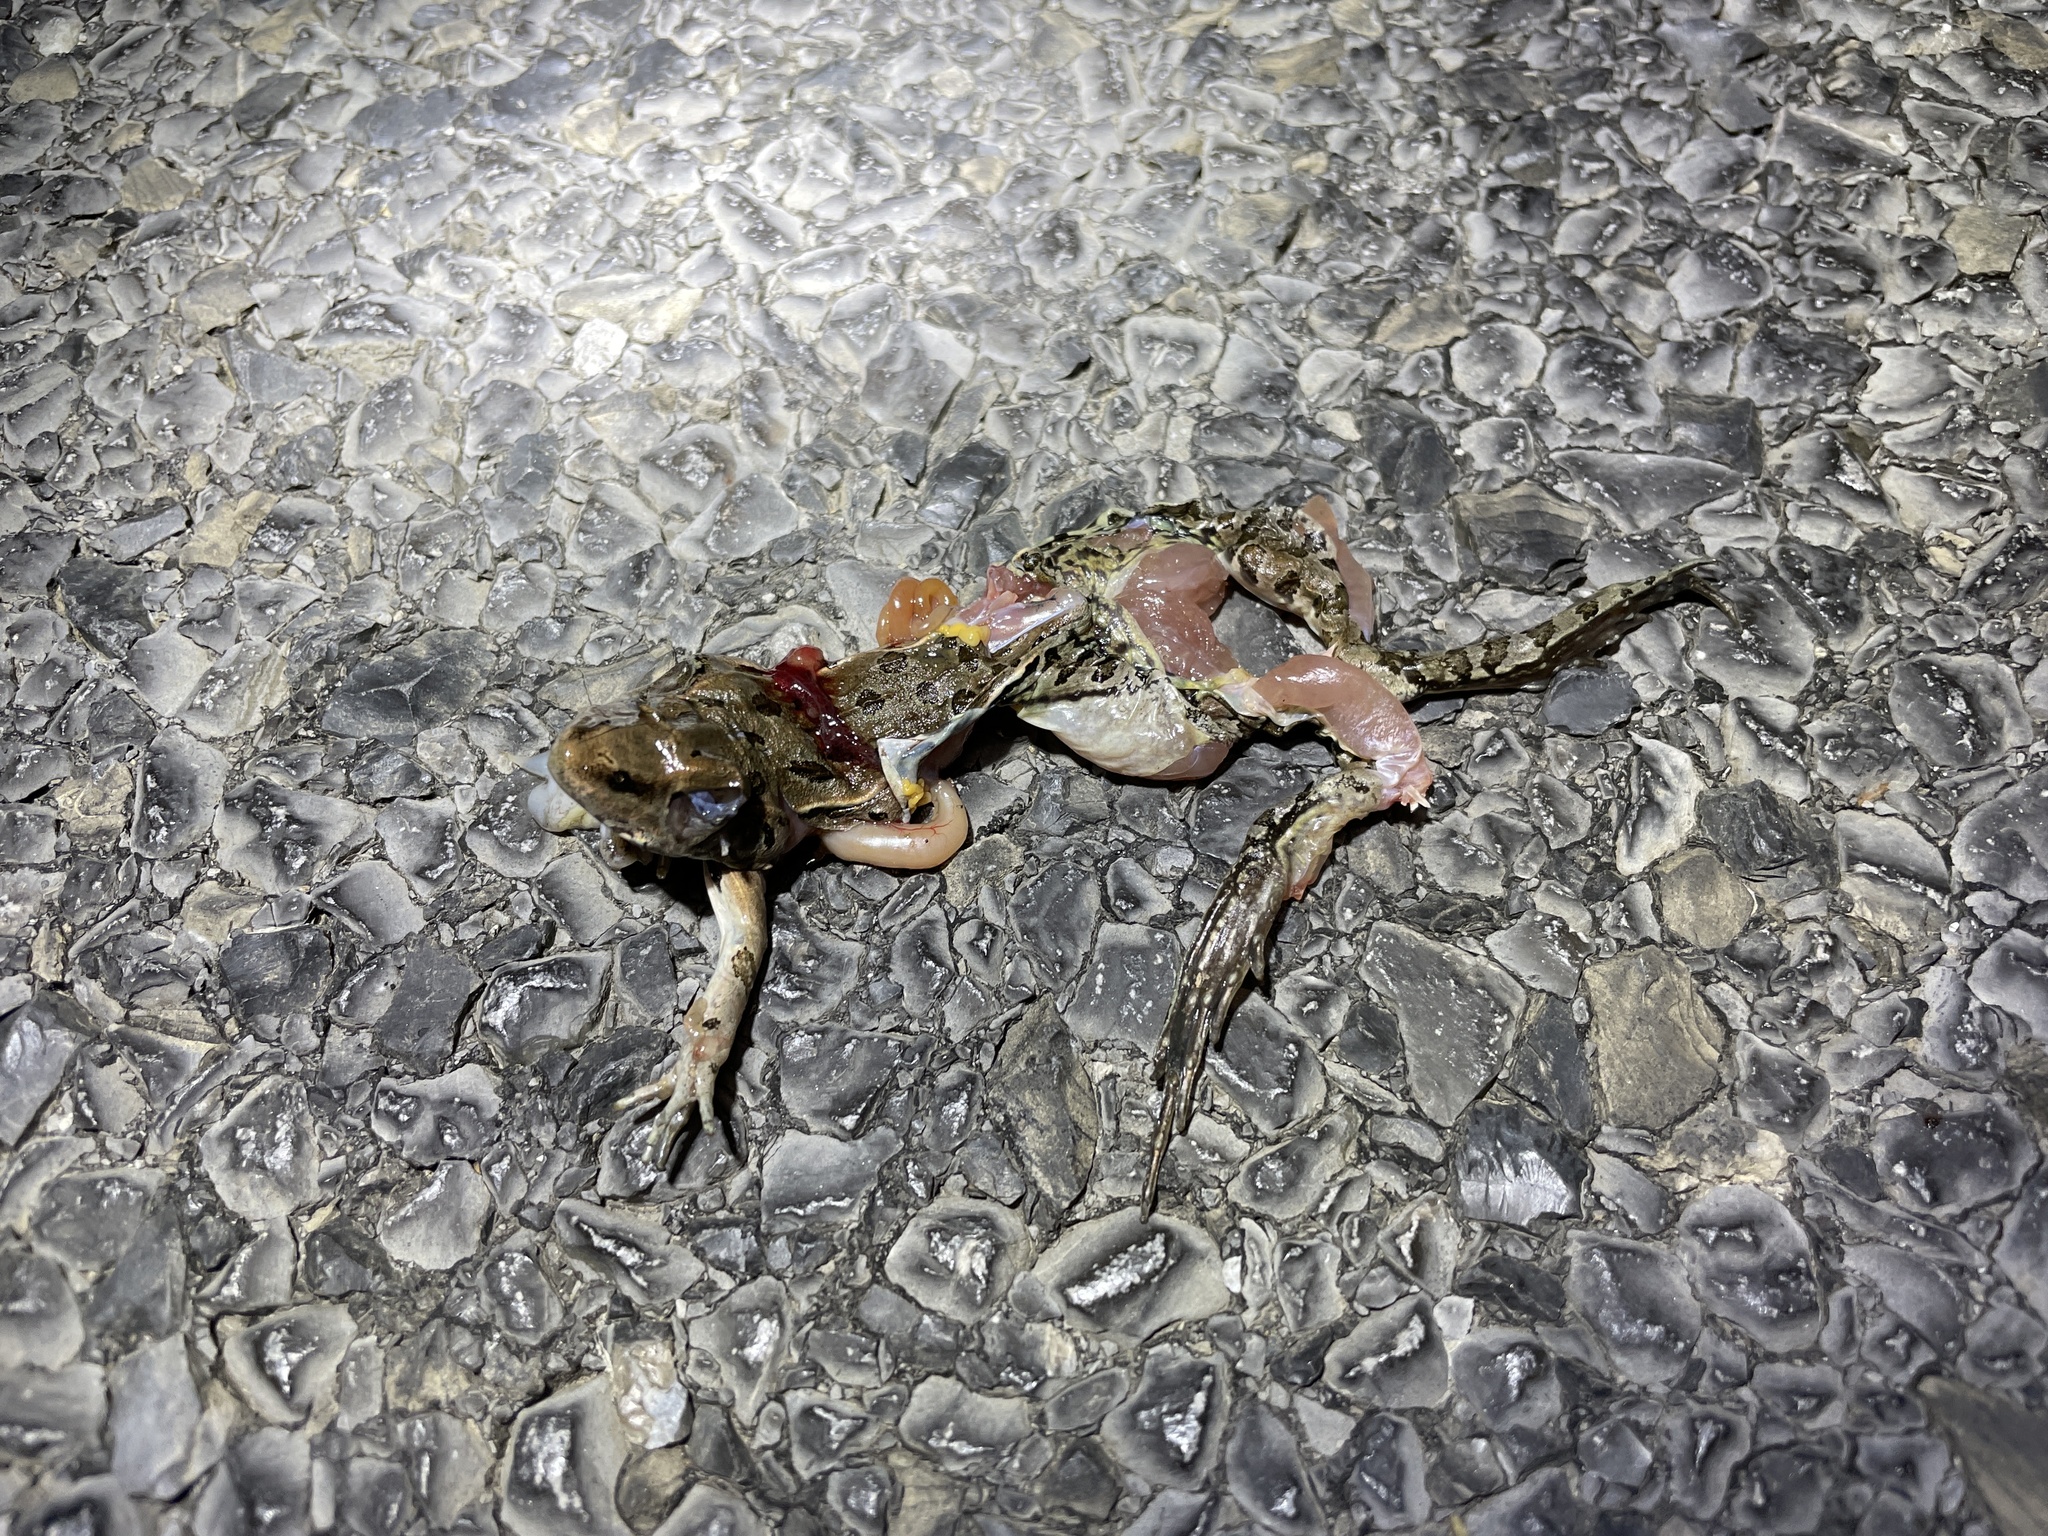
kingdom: Animalia
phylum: Chordata
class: Amphibia
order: Anura
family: Ranidae
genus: Lithobates
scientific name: Lithobates sphenocephalus
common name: Southern leopard frog
